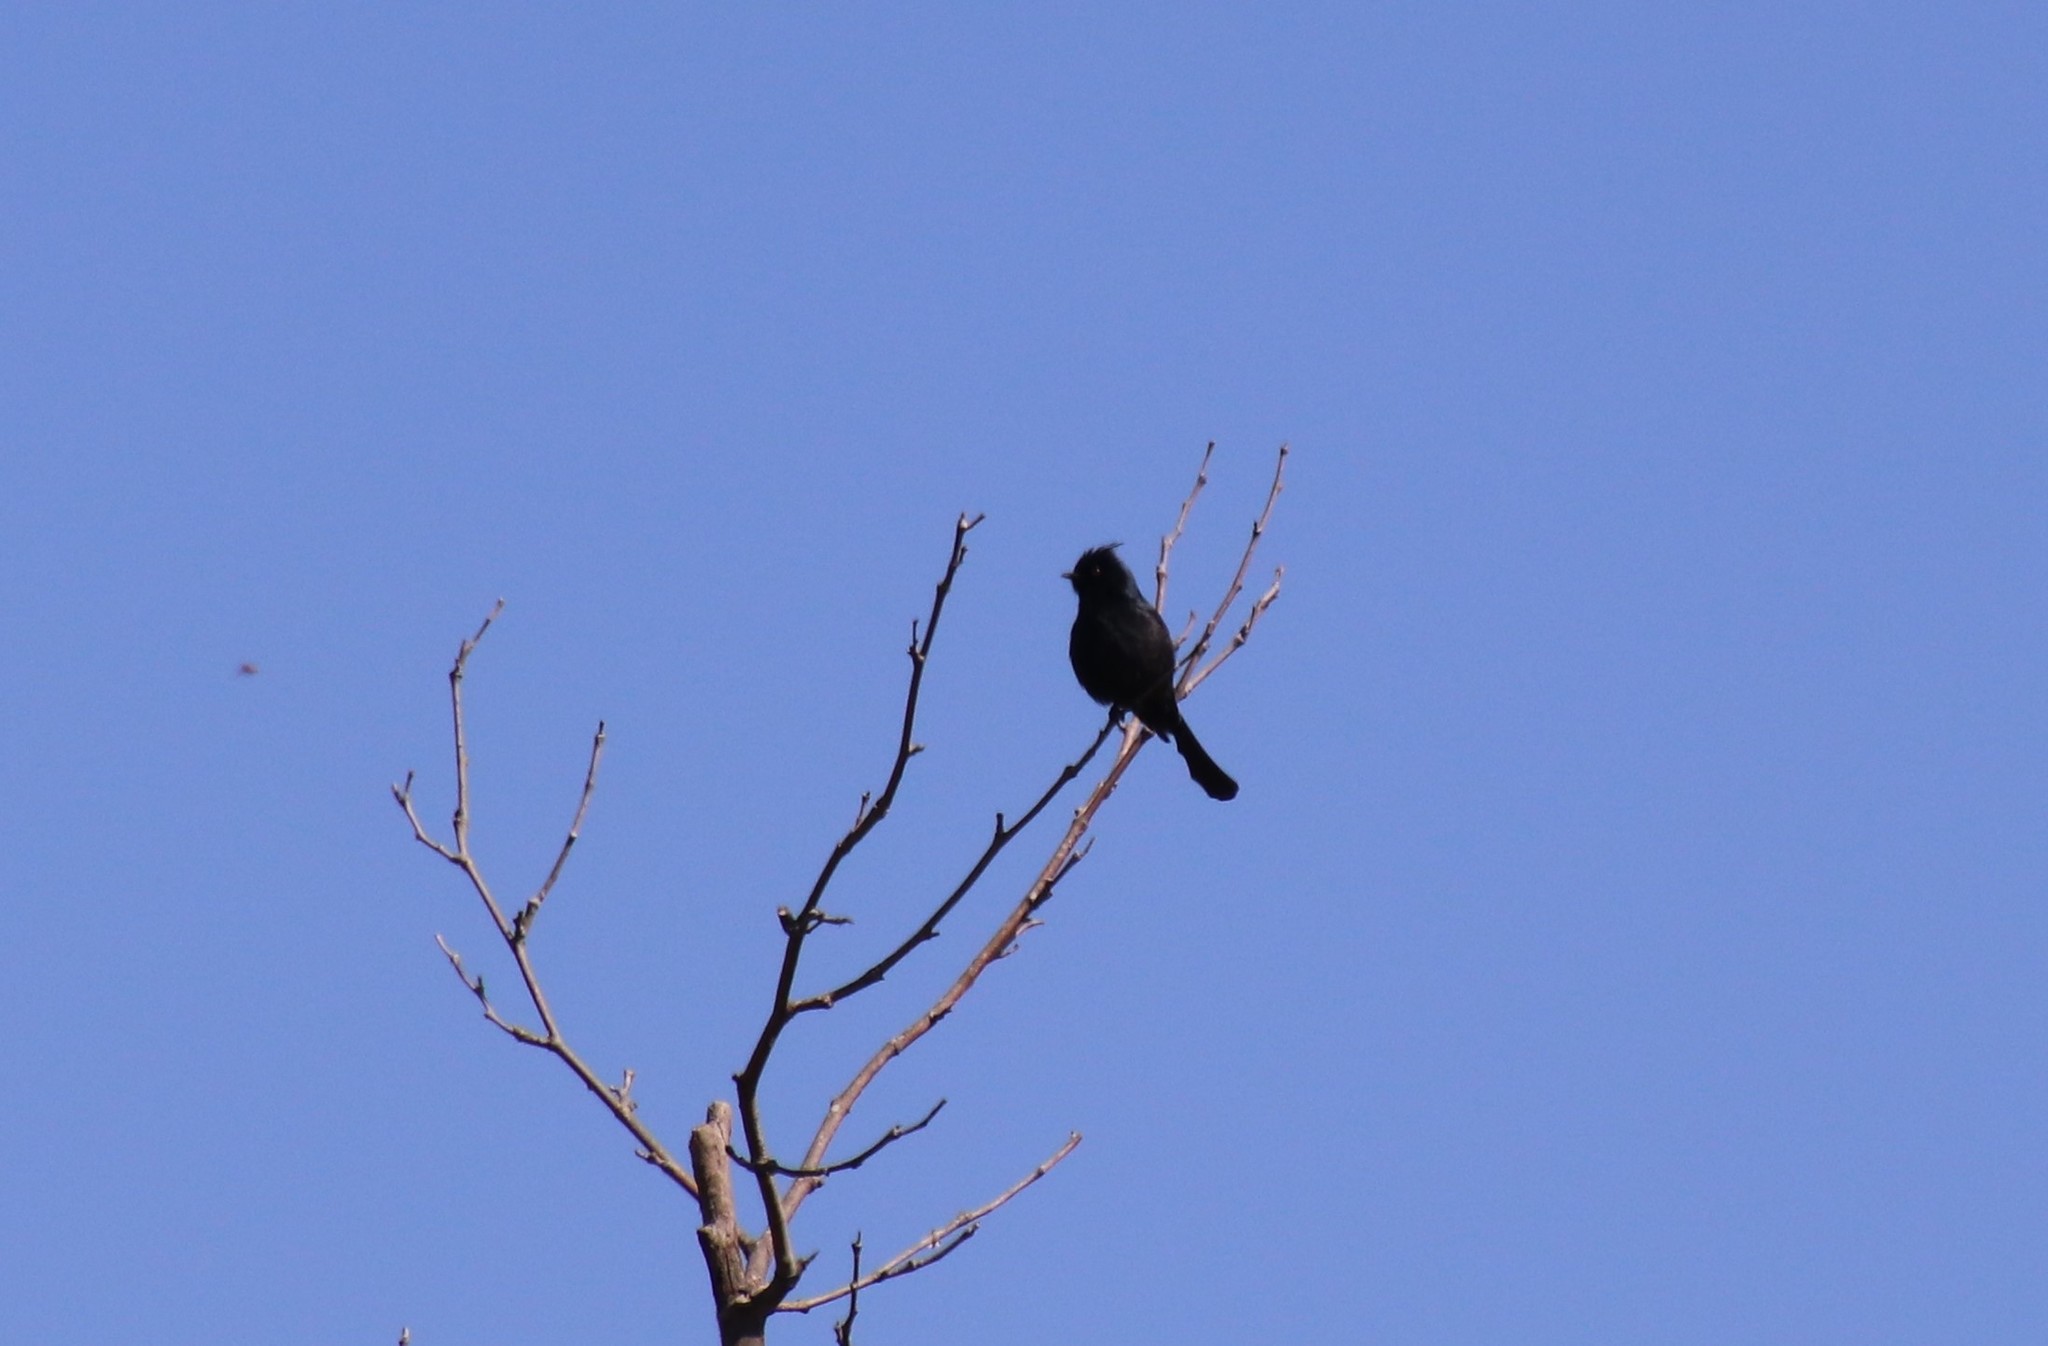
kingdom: Animalia
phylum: Chordata
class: Aves
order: Passeriformes
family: Ptilogonatidae
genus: Phainopepla
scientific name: Phainopepla nitens
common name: Phainopepla
